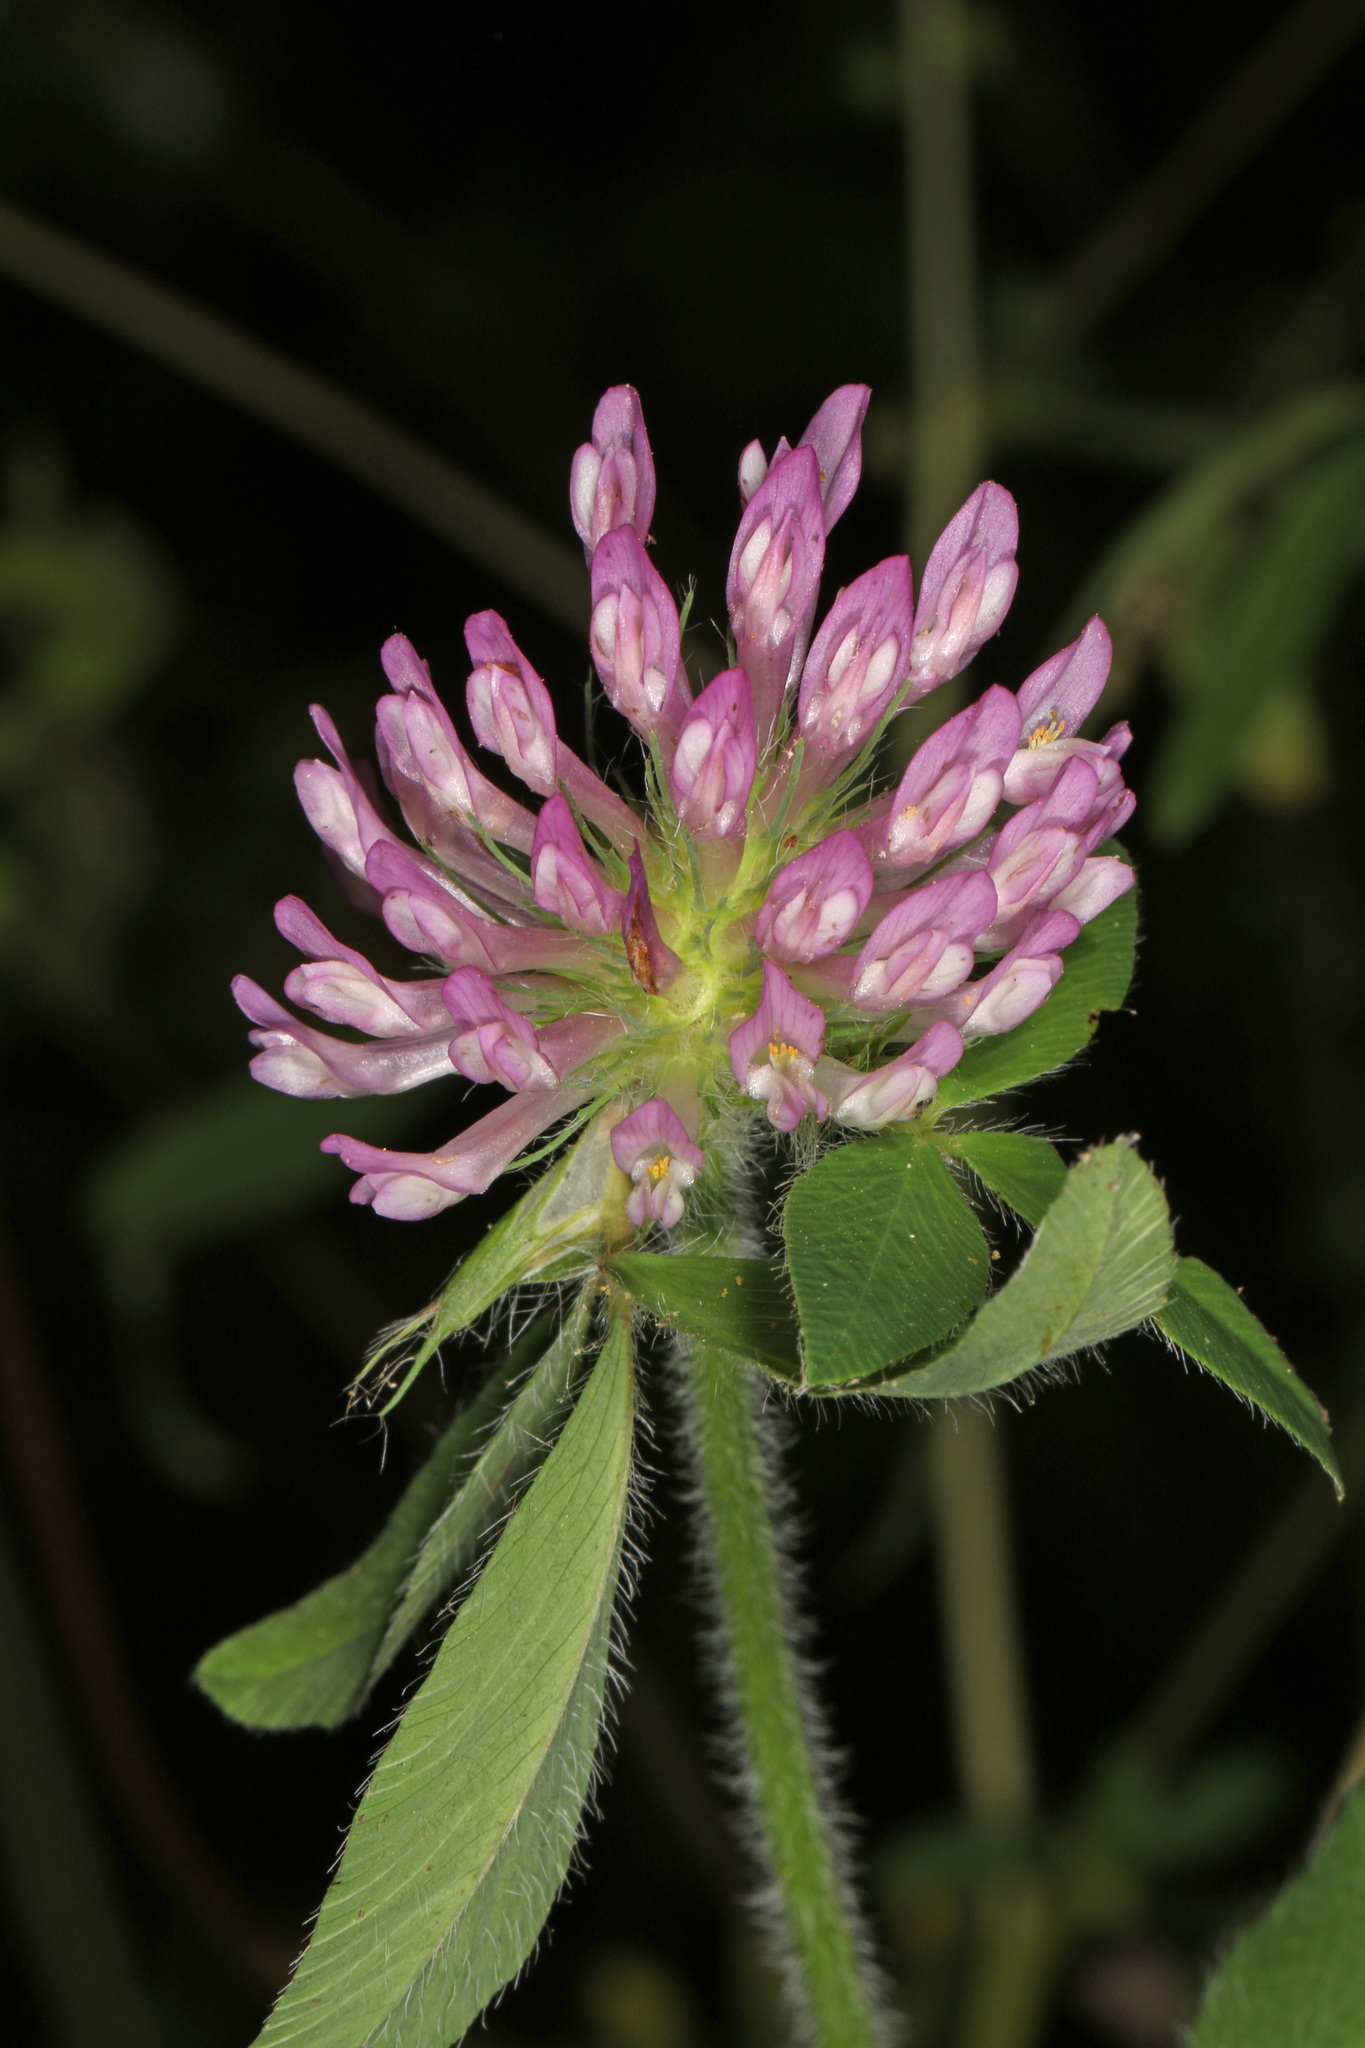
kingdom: Plantae
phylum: Tracheophyta
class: Magnoliopsida
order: Fabales
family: Fabaceae
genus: Trifolium
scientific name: Trifolium pratense
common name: Red clover
